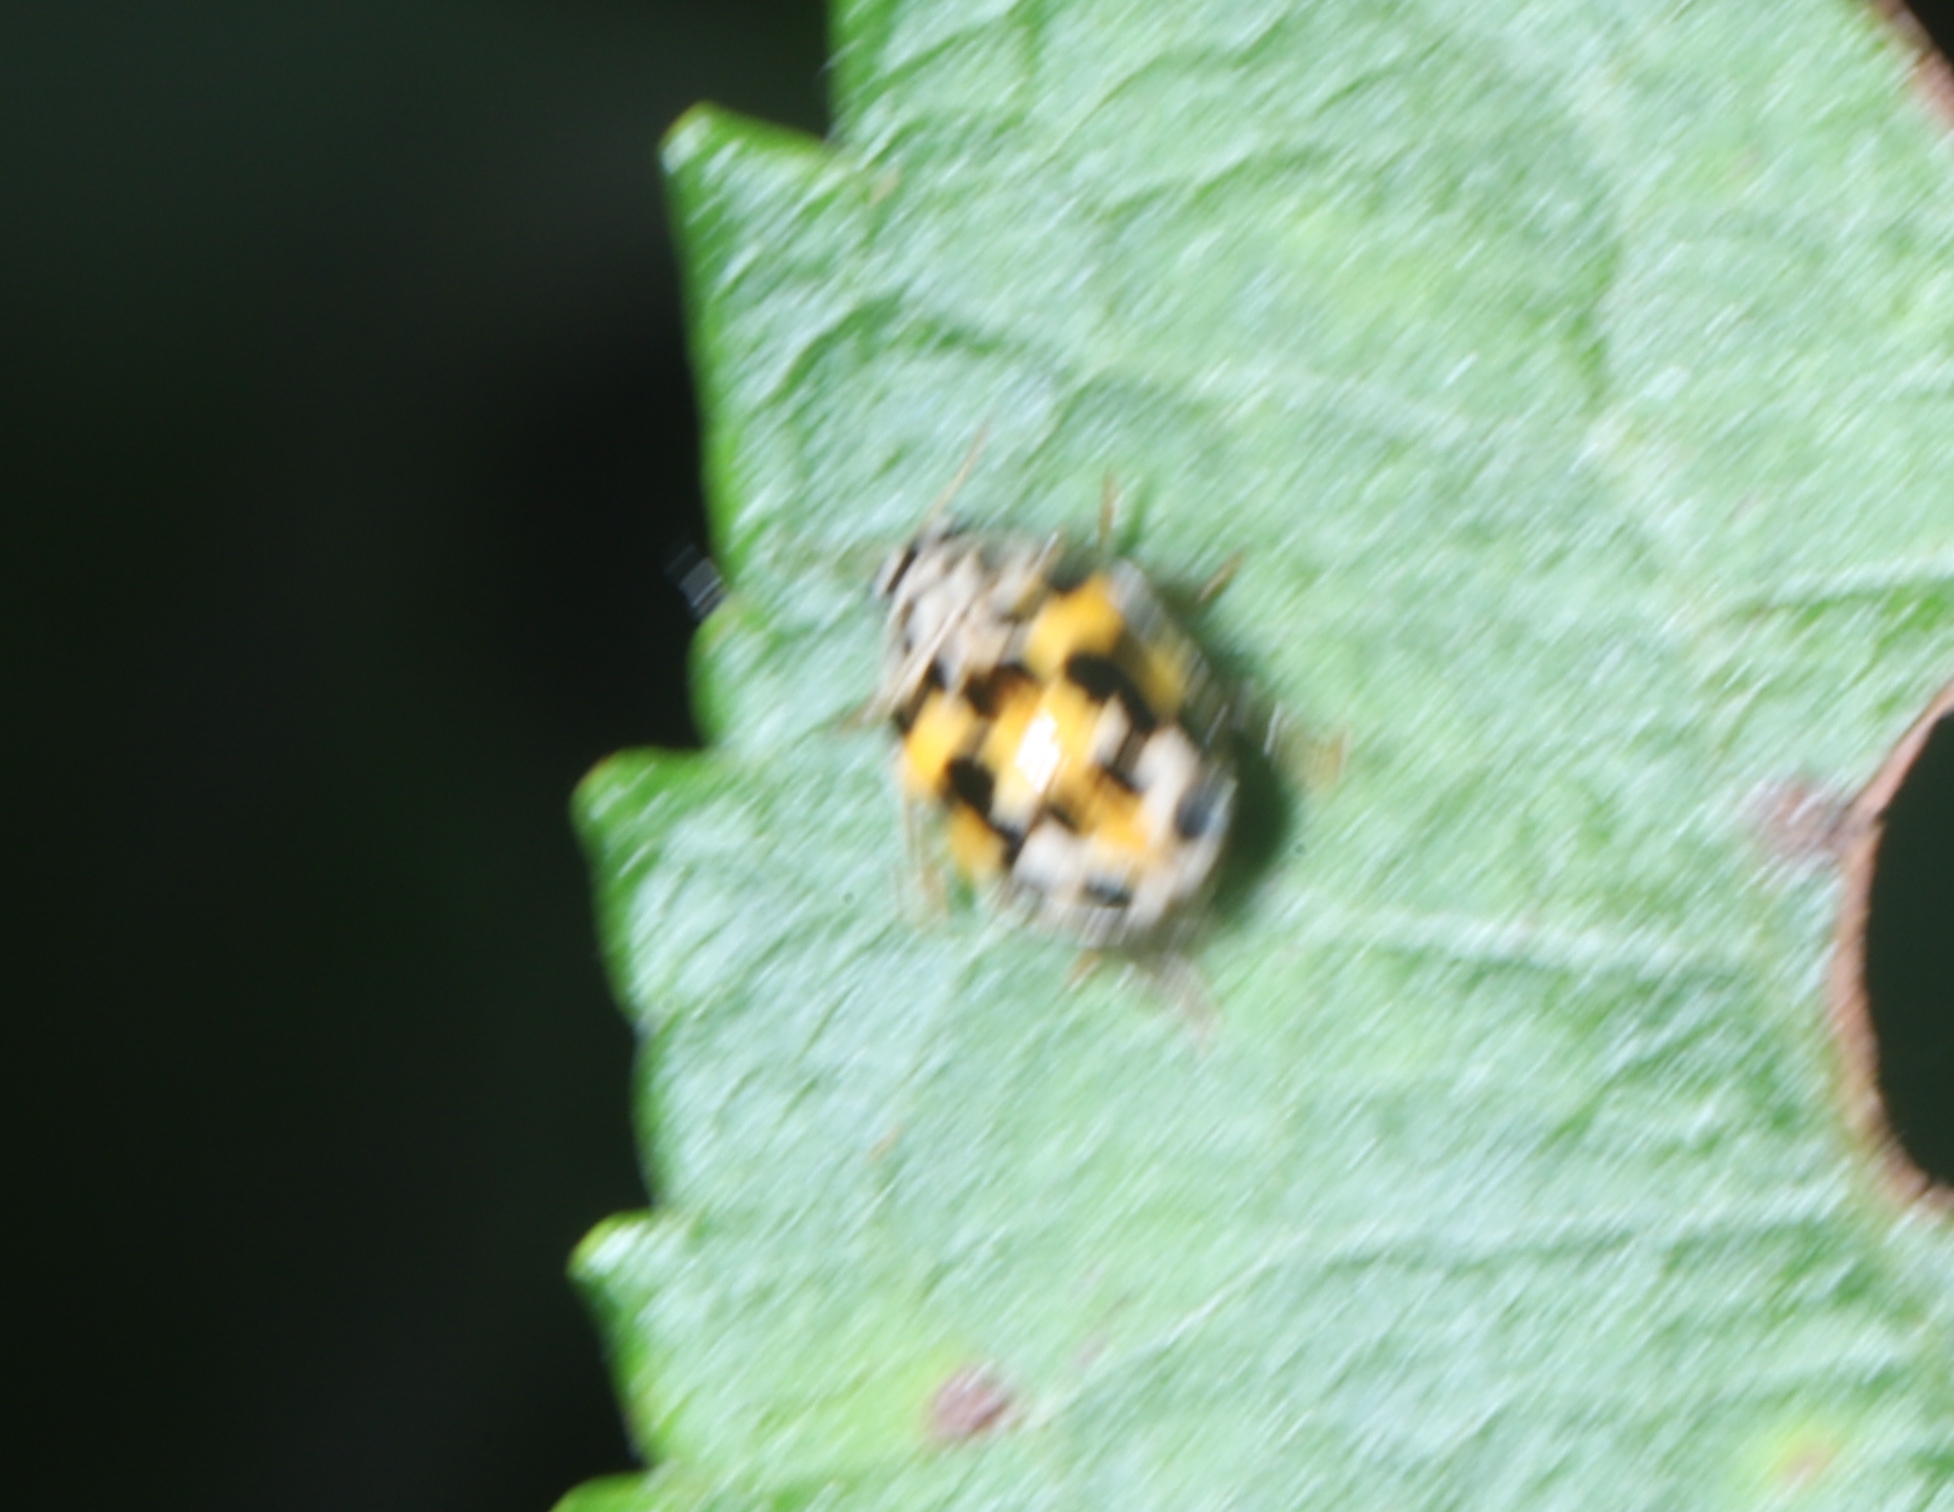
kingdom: Animalia
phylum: Arthropoda
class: Insecta
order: Coleoptera
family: Coccinellidae
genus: Psyllobora
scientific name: Psyllobora vigintimaculata
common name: Ladybird beetle
